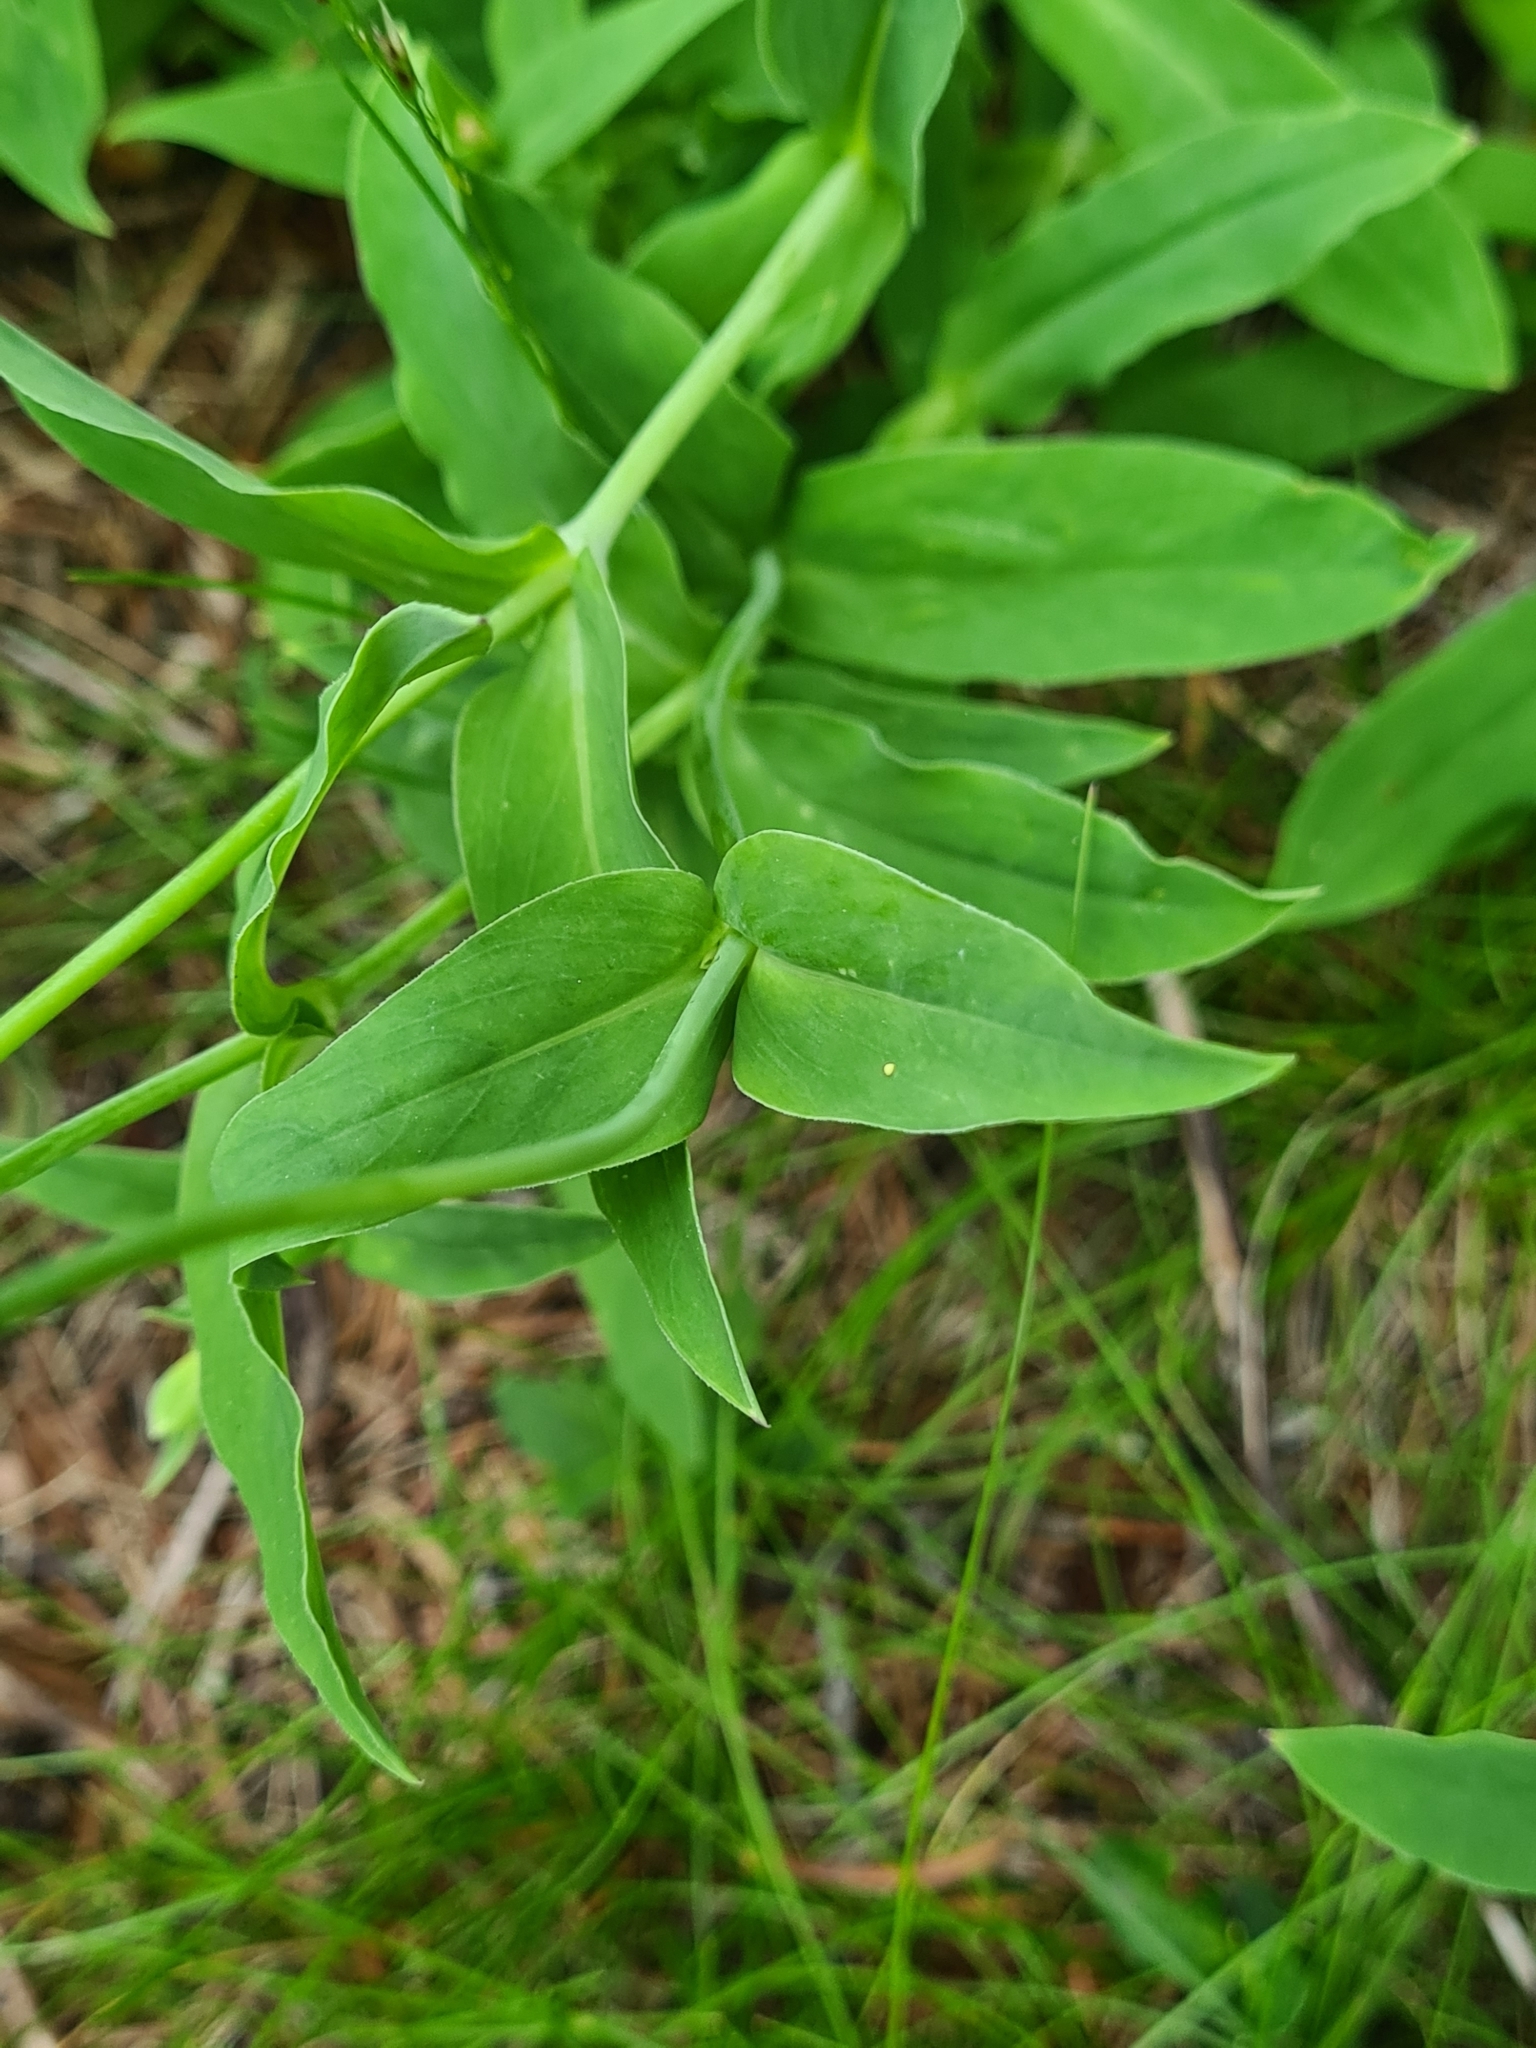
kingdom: Plantae
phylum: Tracheophyta
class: Magnoliopsida
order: Caryophyllales
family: Caryophyllaceae
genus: Silene
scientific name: Silene vulgaris
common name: Bladder campion
